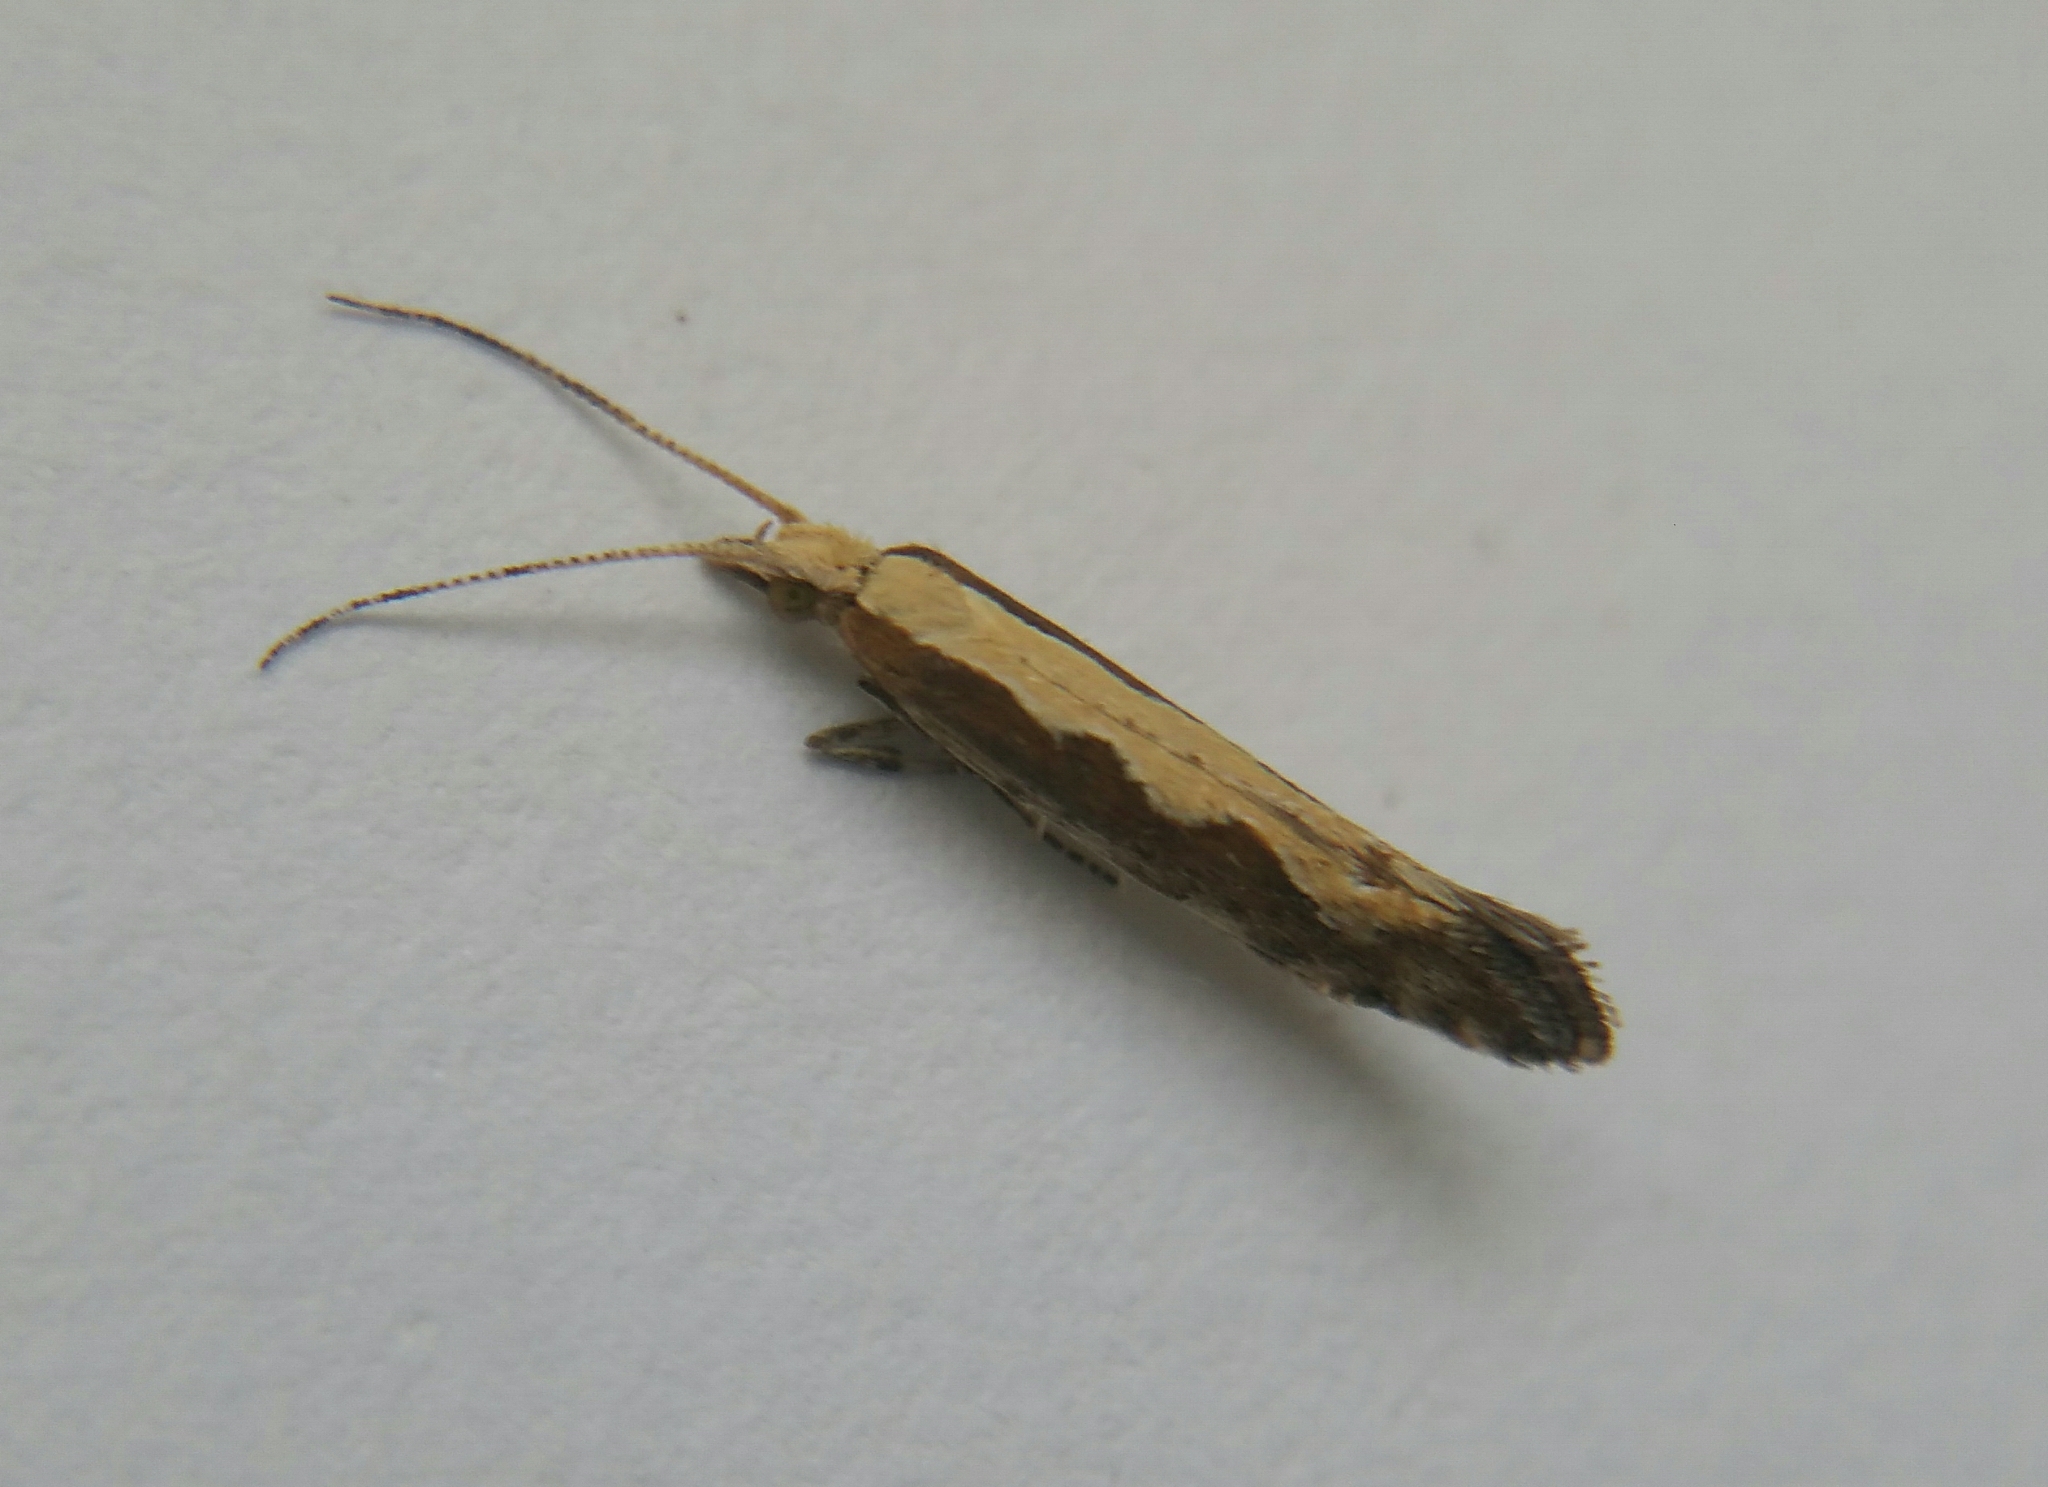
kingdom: Animalia
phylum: Arthropoda
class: Insecta
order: Lepidoptera
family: Plutellidae
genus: Plutella
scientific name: Plutella xylostella
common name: Diamond-back moth
